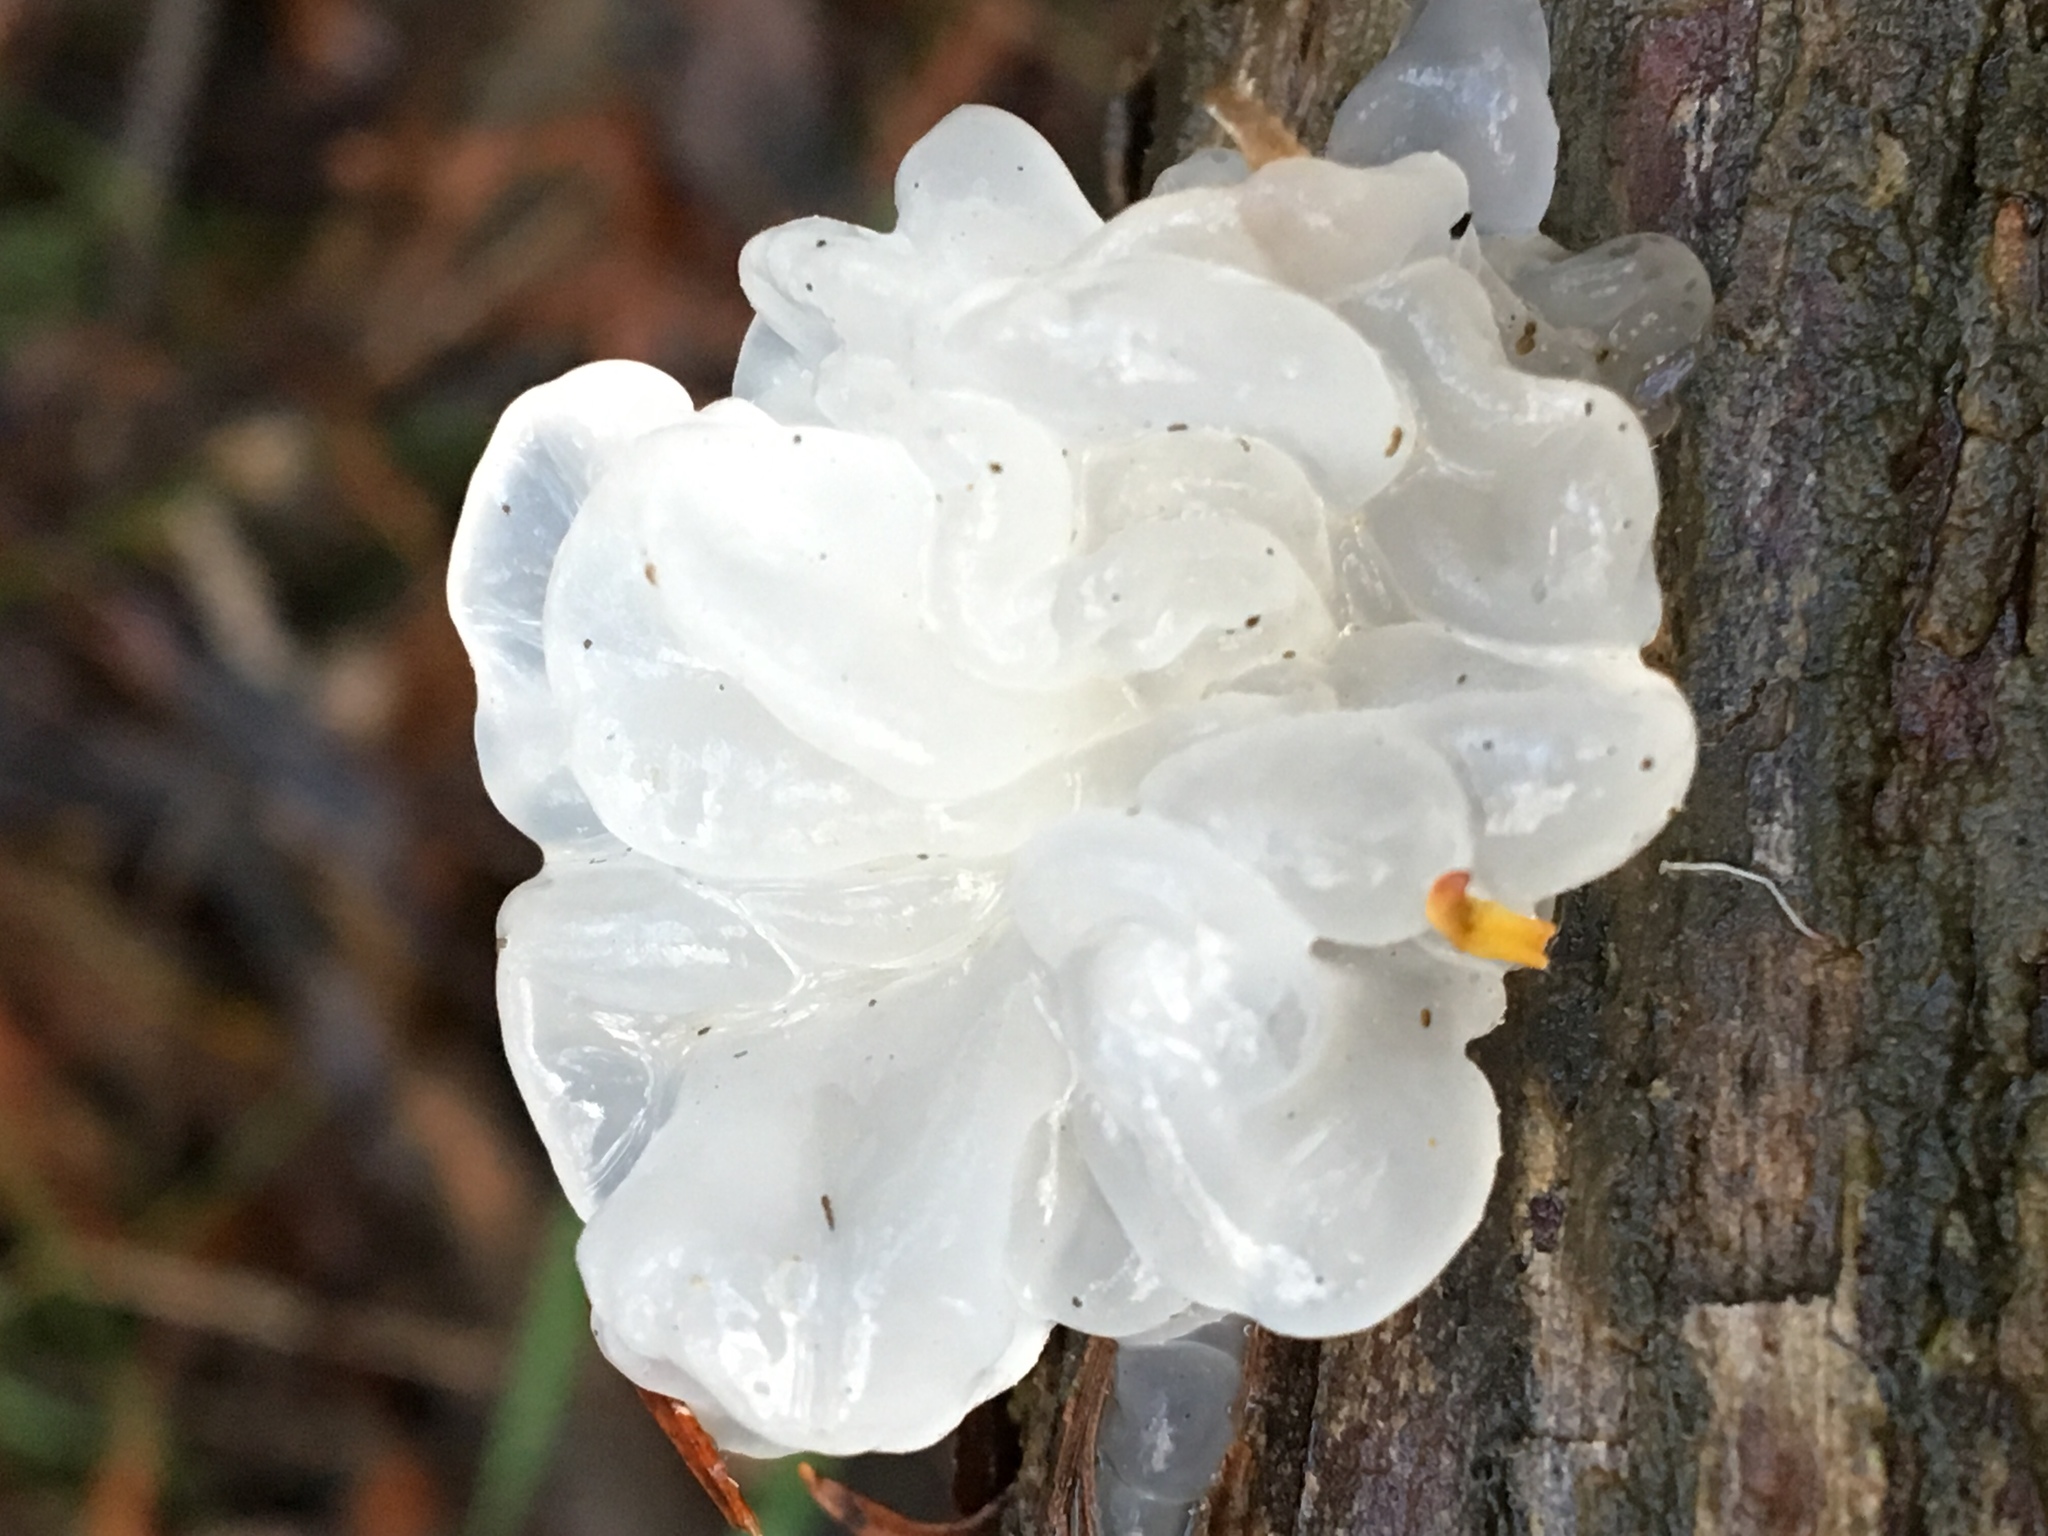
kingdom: Fungi
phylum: Basidiomycota
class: Tremellomycetes
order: Tremellales
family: Tremellaceae
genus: Tremella
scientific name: Tremella fuciformis
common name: Snow fungus
